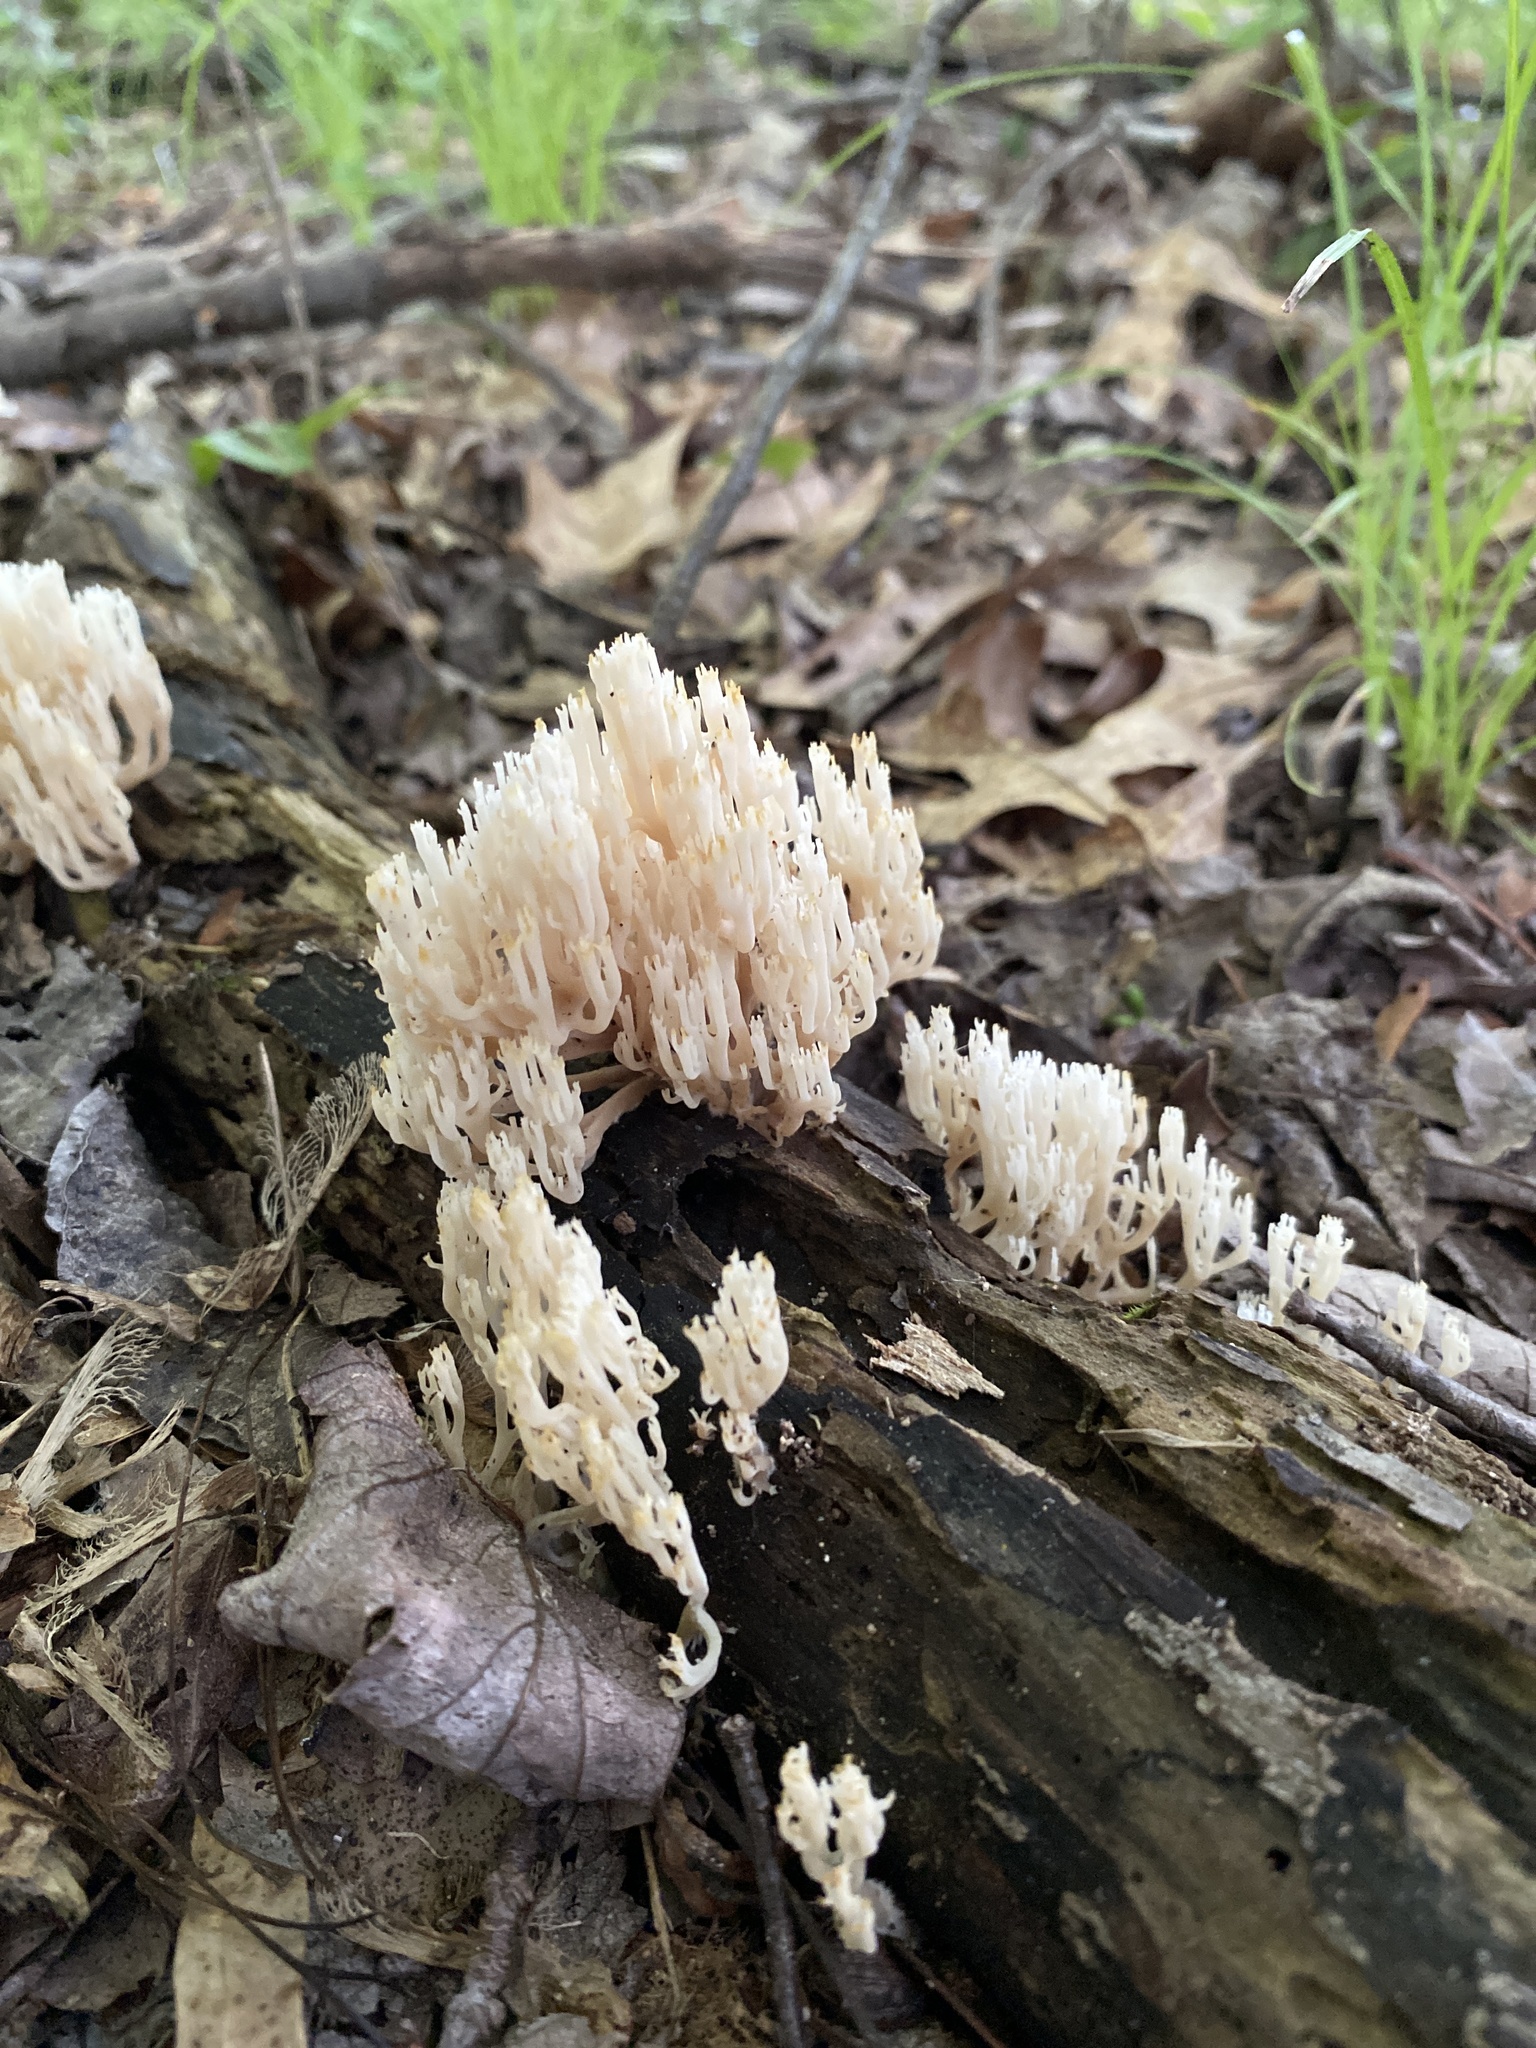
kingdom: Fungi
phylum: Basidiomycota
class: Agaricomycetes
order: Russulales
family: Auriscalpiaceae
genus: Artomyces
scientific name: Artomyces pyxidatus
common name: Crown-tipped coral fungus
